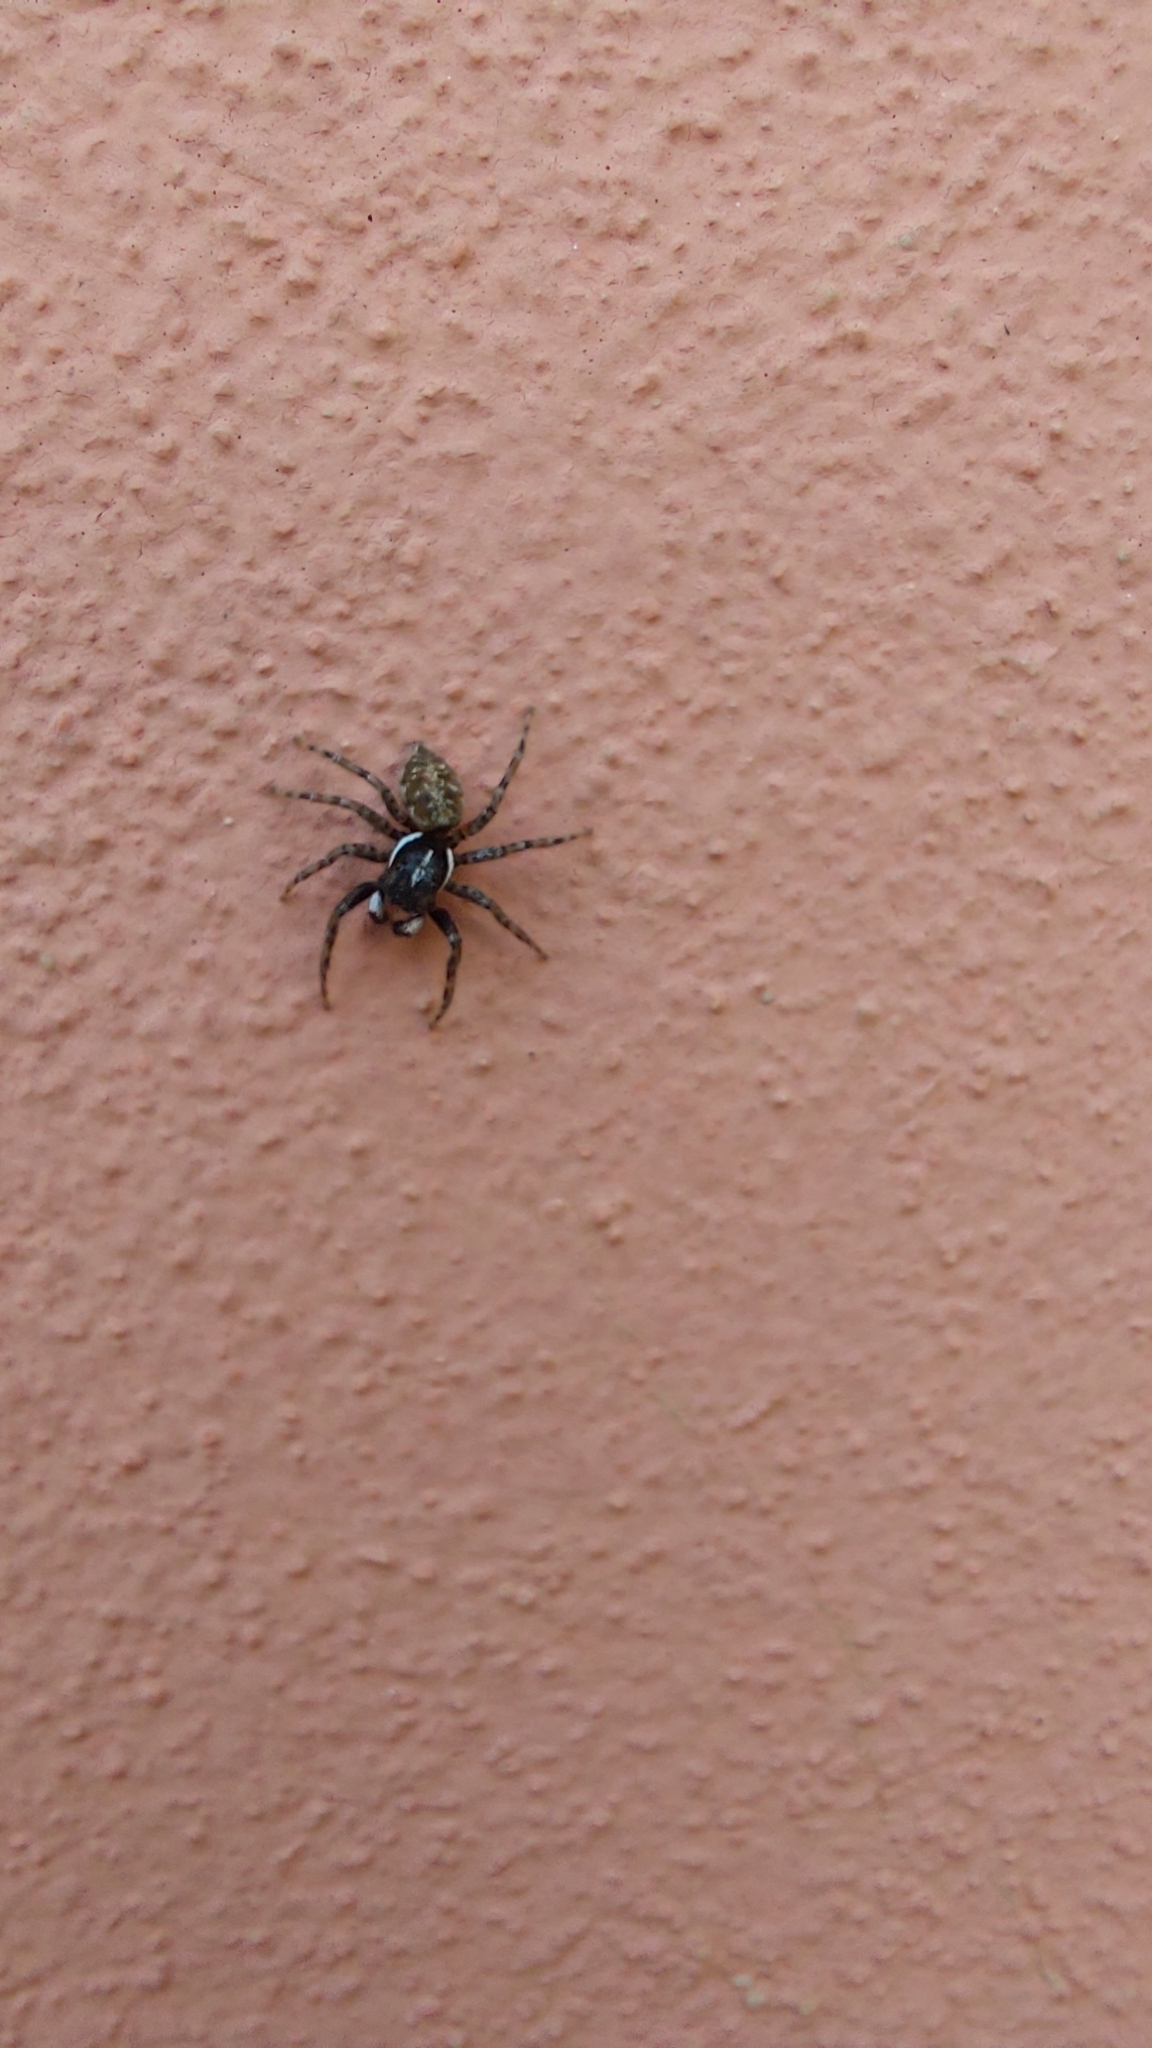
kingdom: Animalia
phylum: Arthropoda
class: Arachnida
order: Araneae
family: Salticidae
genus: Menemerus
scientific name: Menemerus semilimbatus
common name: Jumping spider
